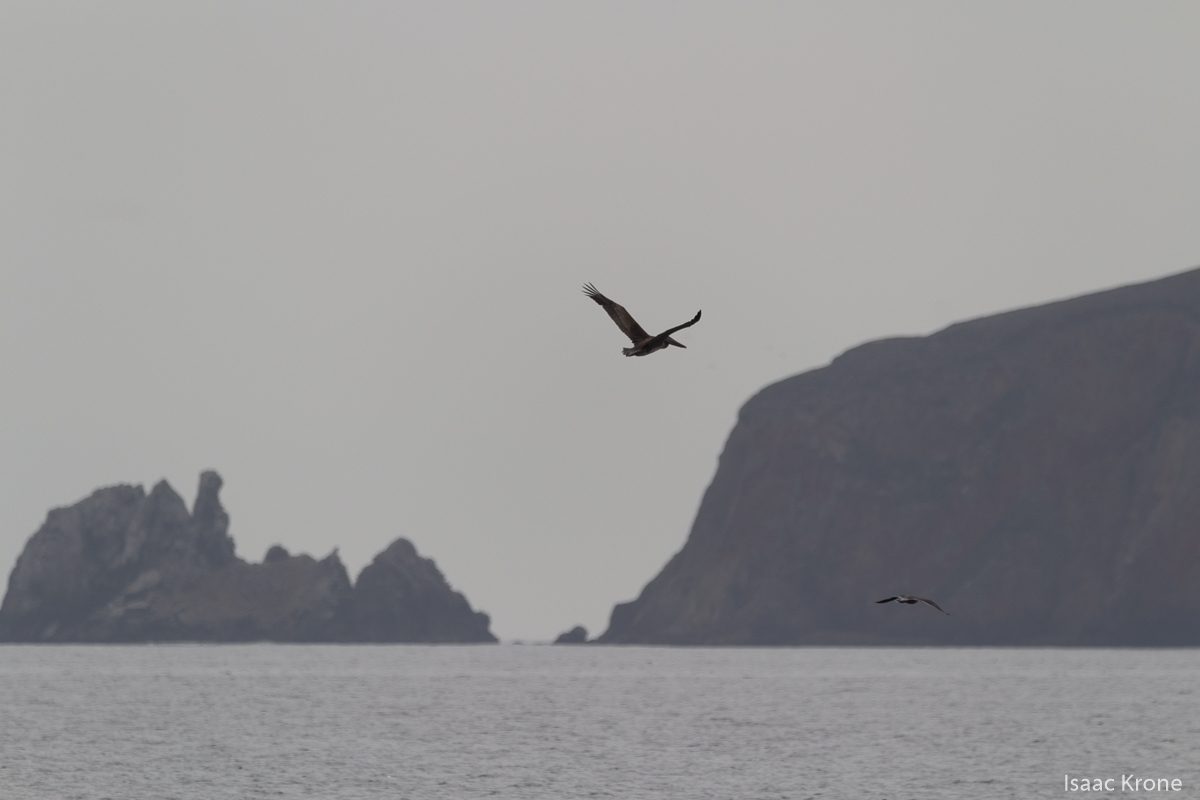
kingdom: Animalia
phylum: Chordata
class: Aves
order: Pelecaniformes
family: Pelecanidae
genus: Pelecanus
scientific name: Pelecanus occidentalis
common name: Brown pelican
